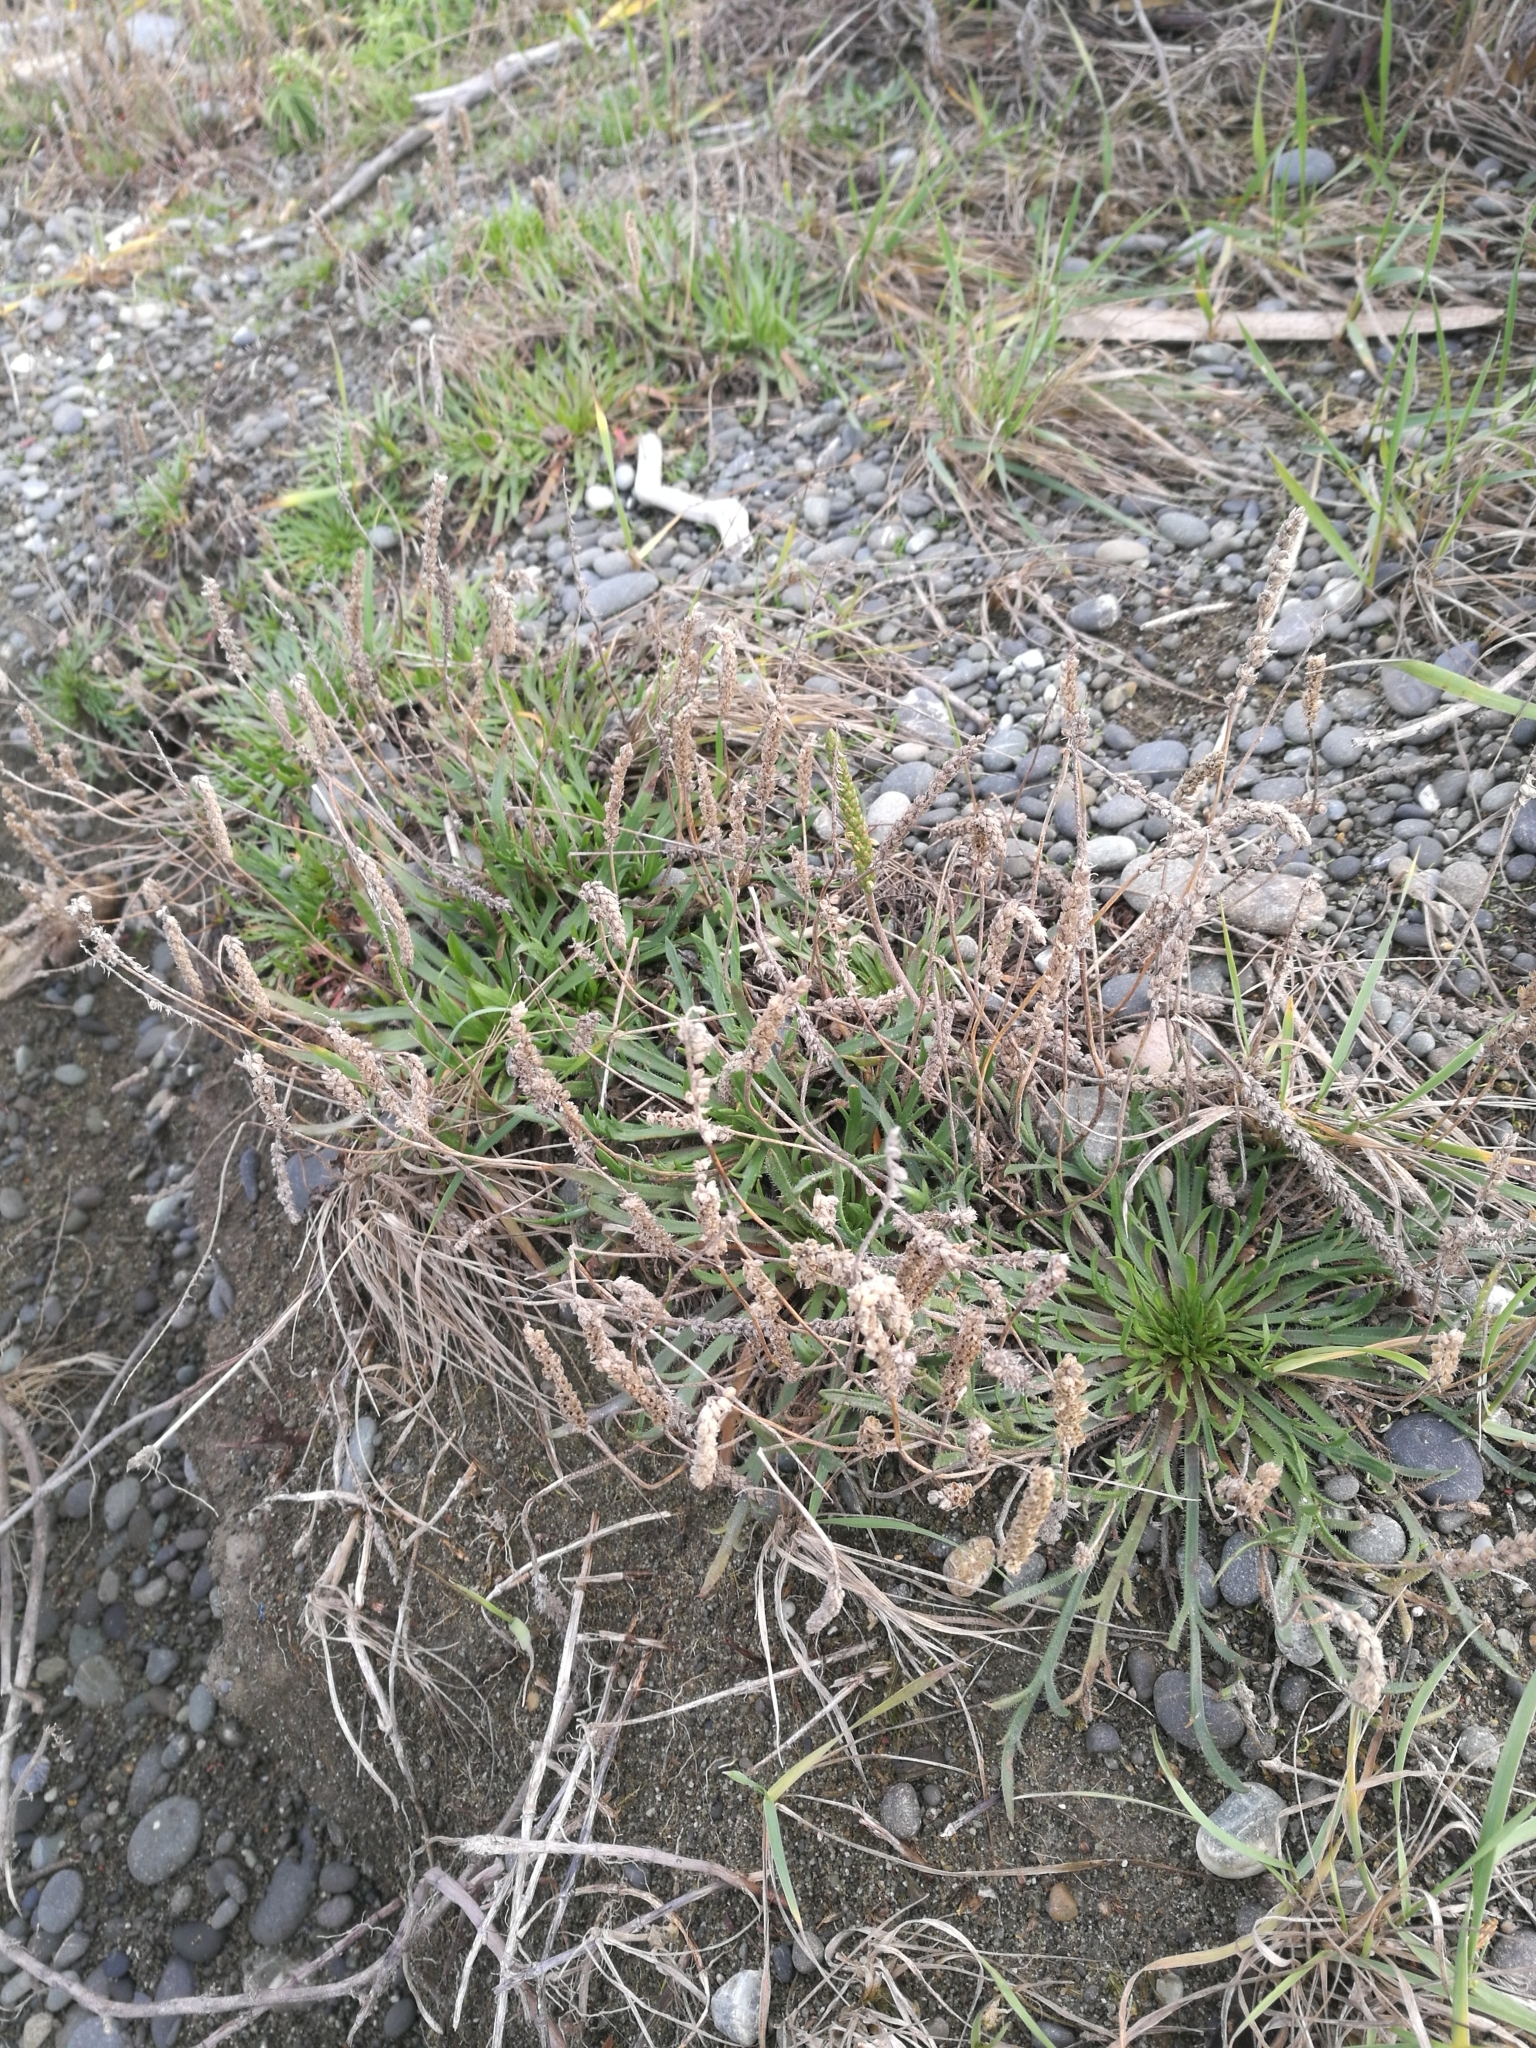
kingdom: Plantae
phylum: Tracheophyta
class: Magnoliopsida
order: Lamiales
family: Plantaginaceae
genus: Plantago
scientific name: Plantago coronopus
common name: Buck's-horn plantain
